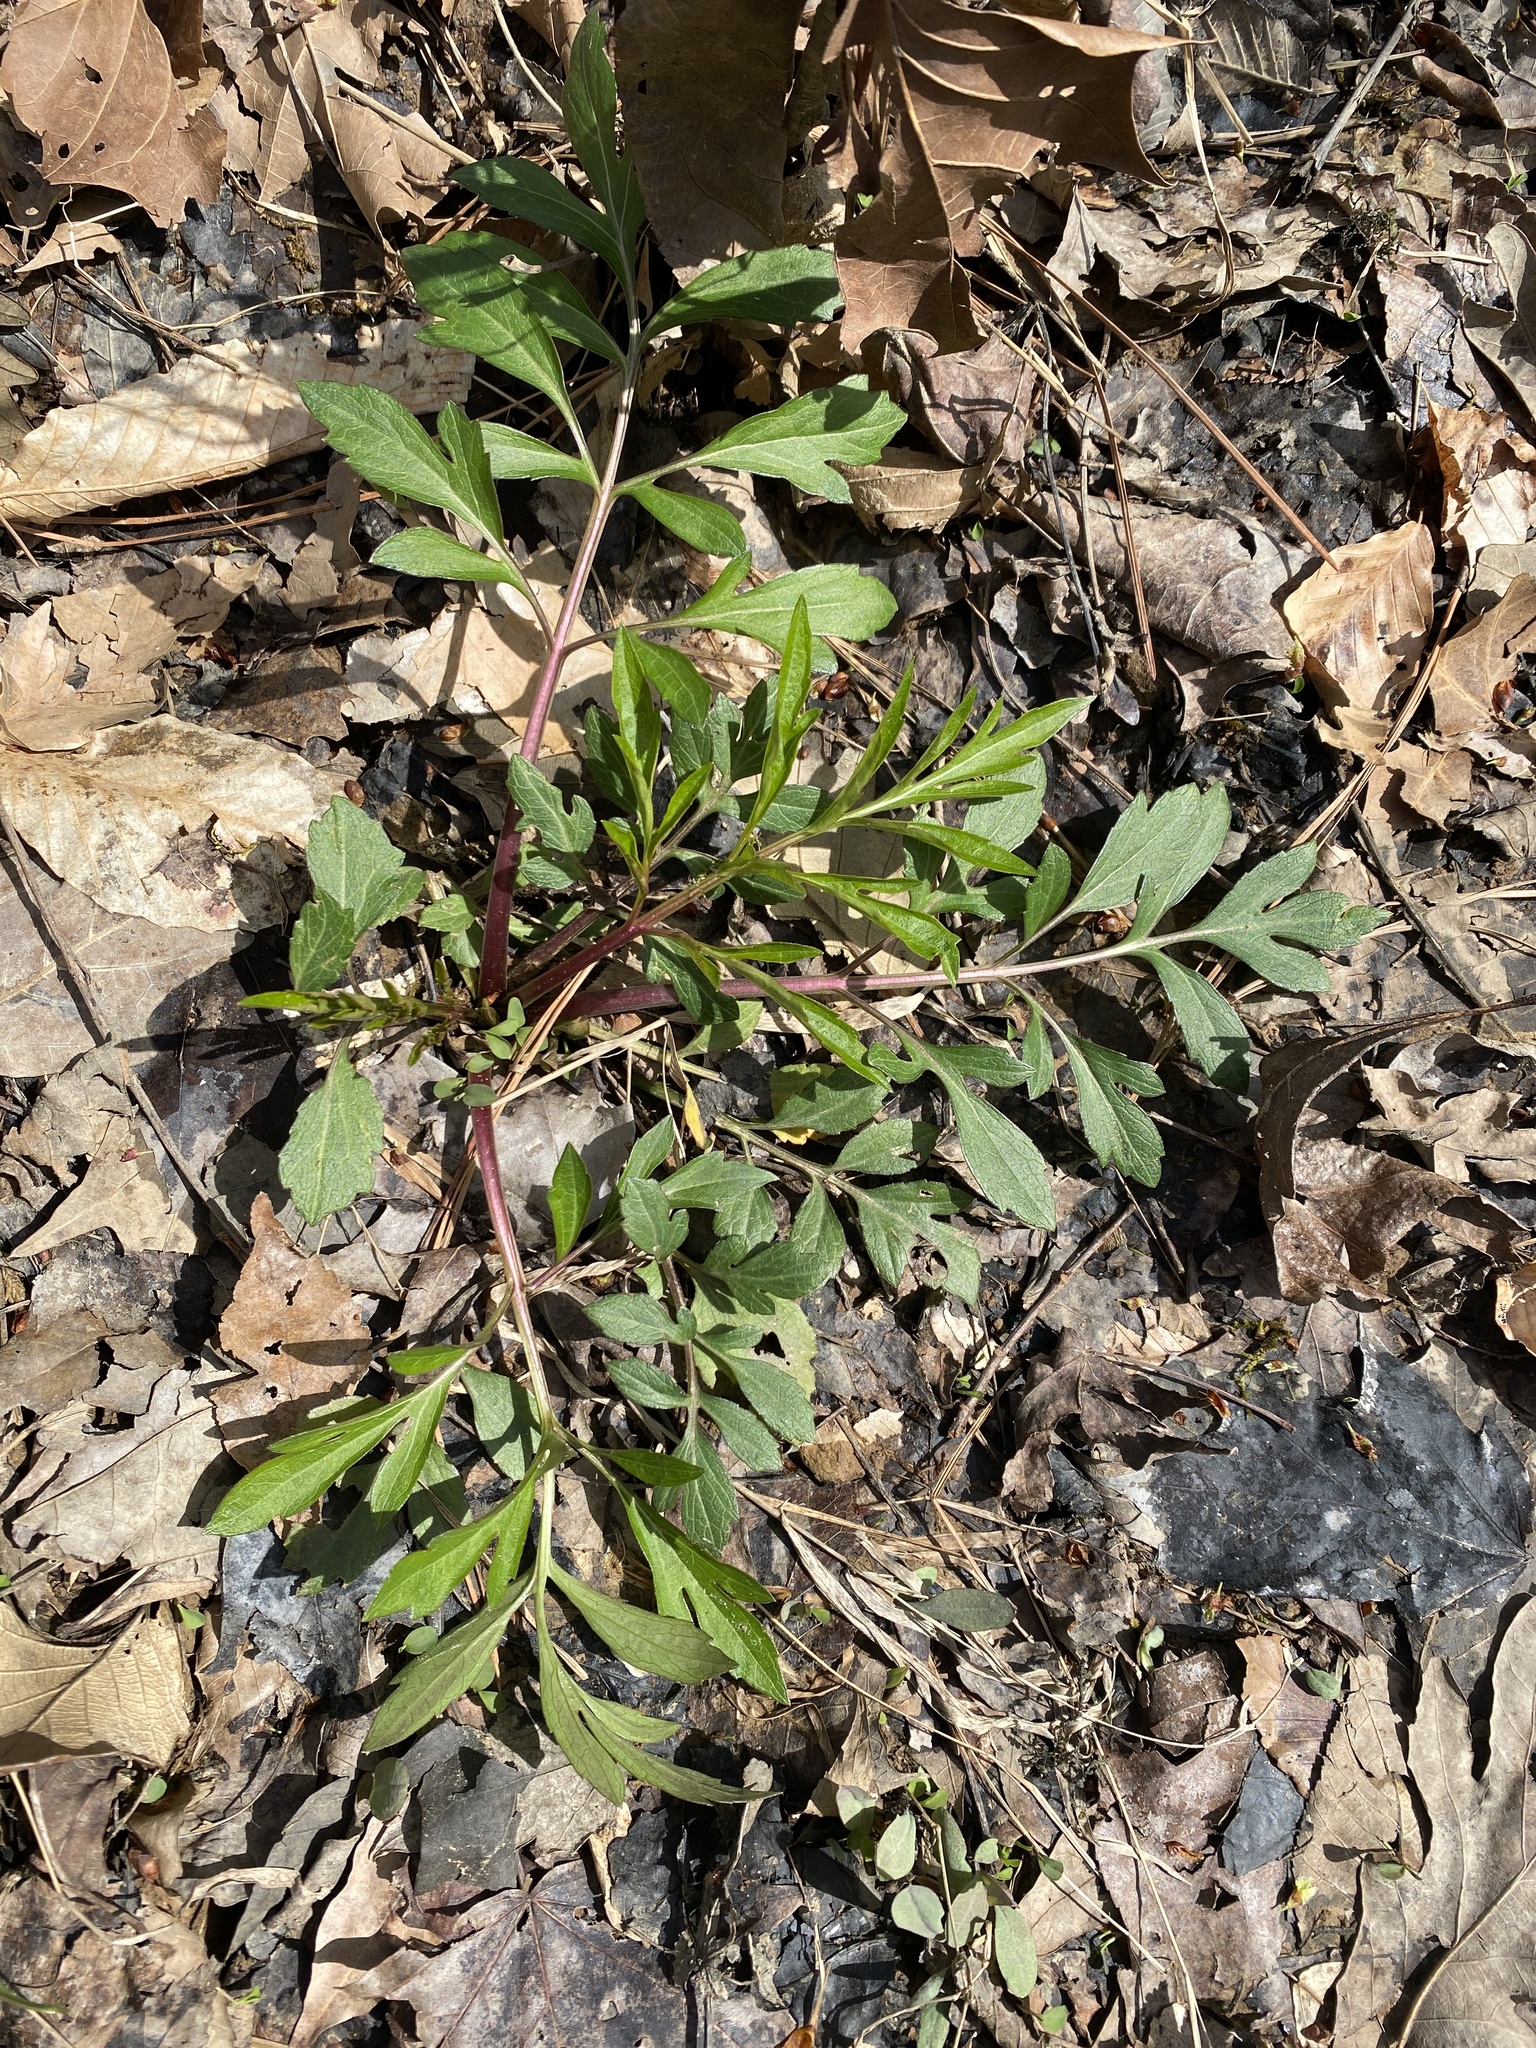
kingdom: Plantae
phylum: Tracheophyta
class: Magnoliopsida
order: Asterales
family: Asteraceae
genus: Rudbeckia
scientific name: Rudbeckia laciniata
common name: Coneflower
